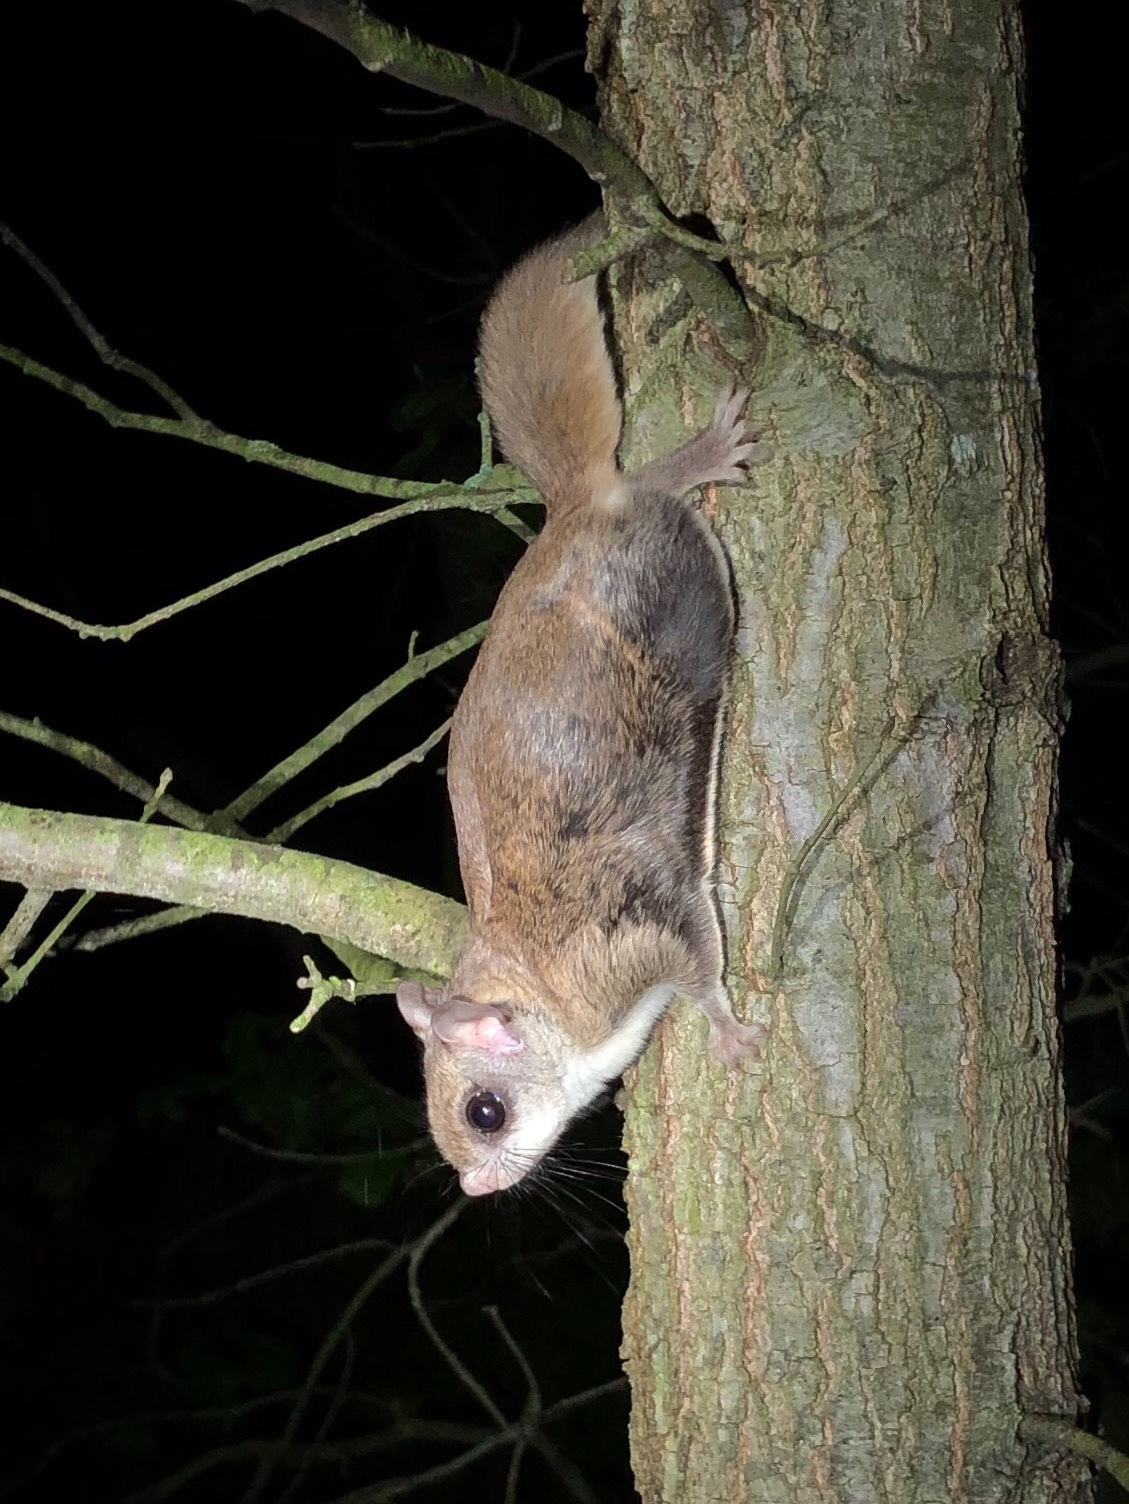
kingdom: Animalia
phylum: Chordata
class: Mammalia
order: Rodentia
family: Sciuridae
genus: Glaucomys
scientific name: Glaucomys volans
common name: Southern flying squirrel
